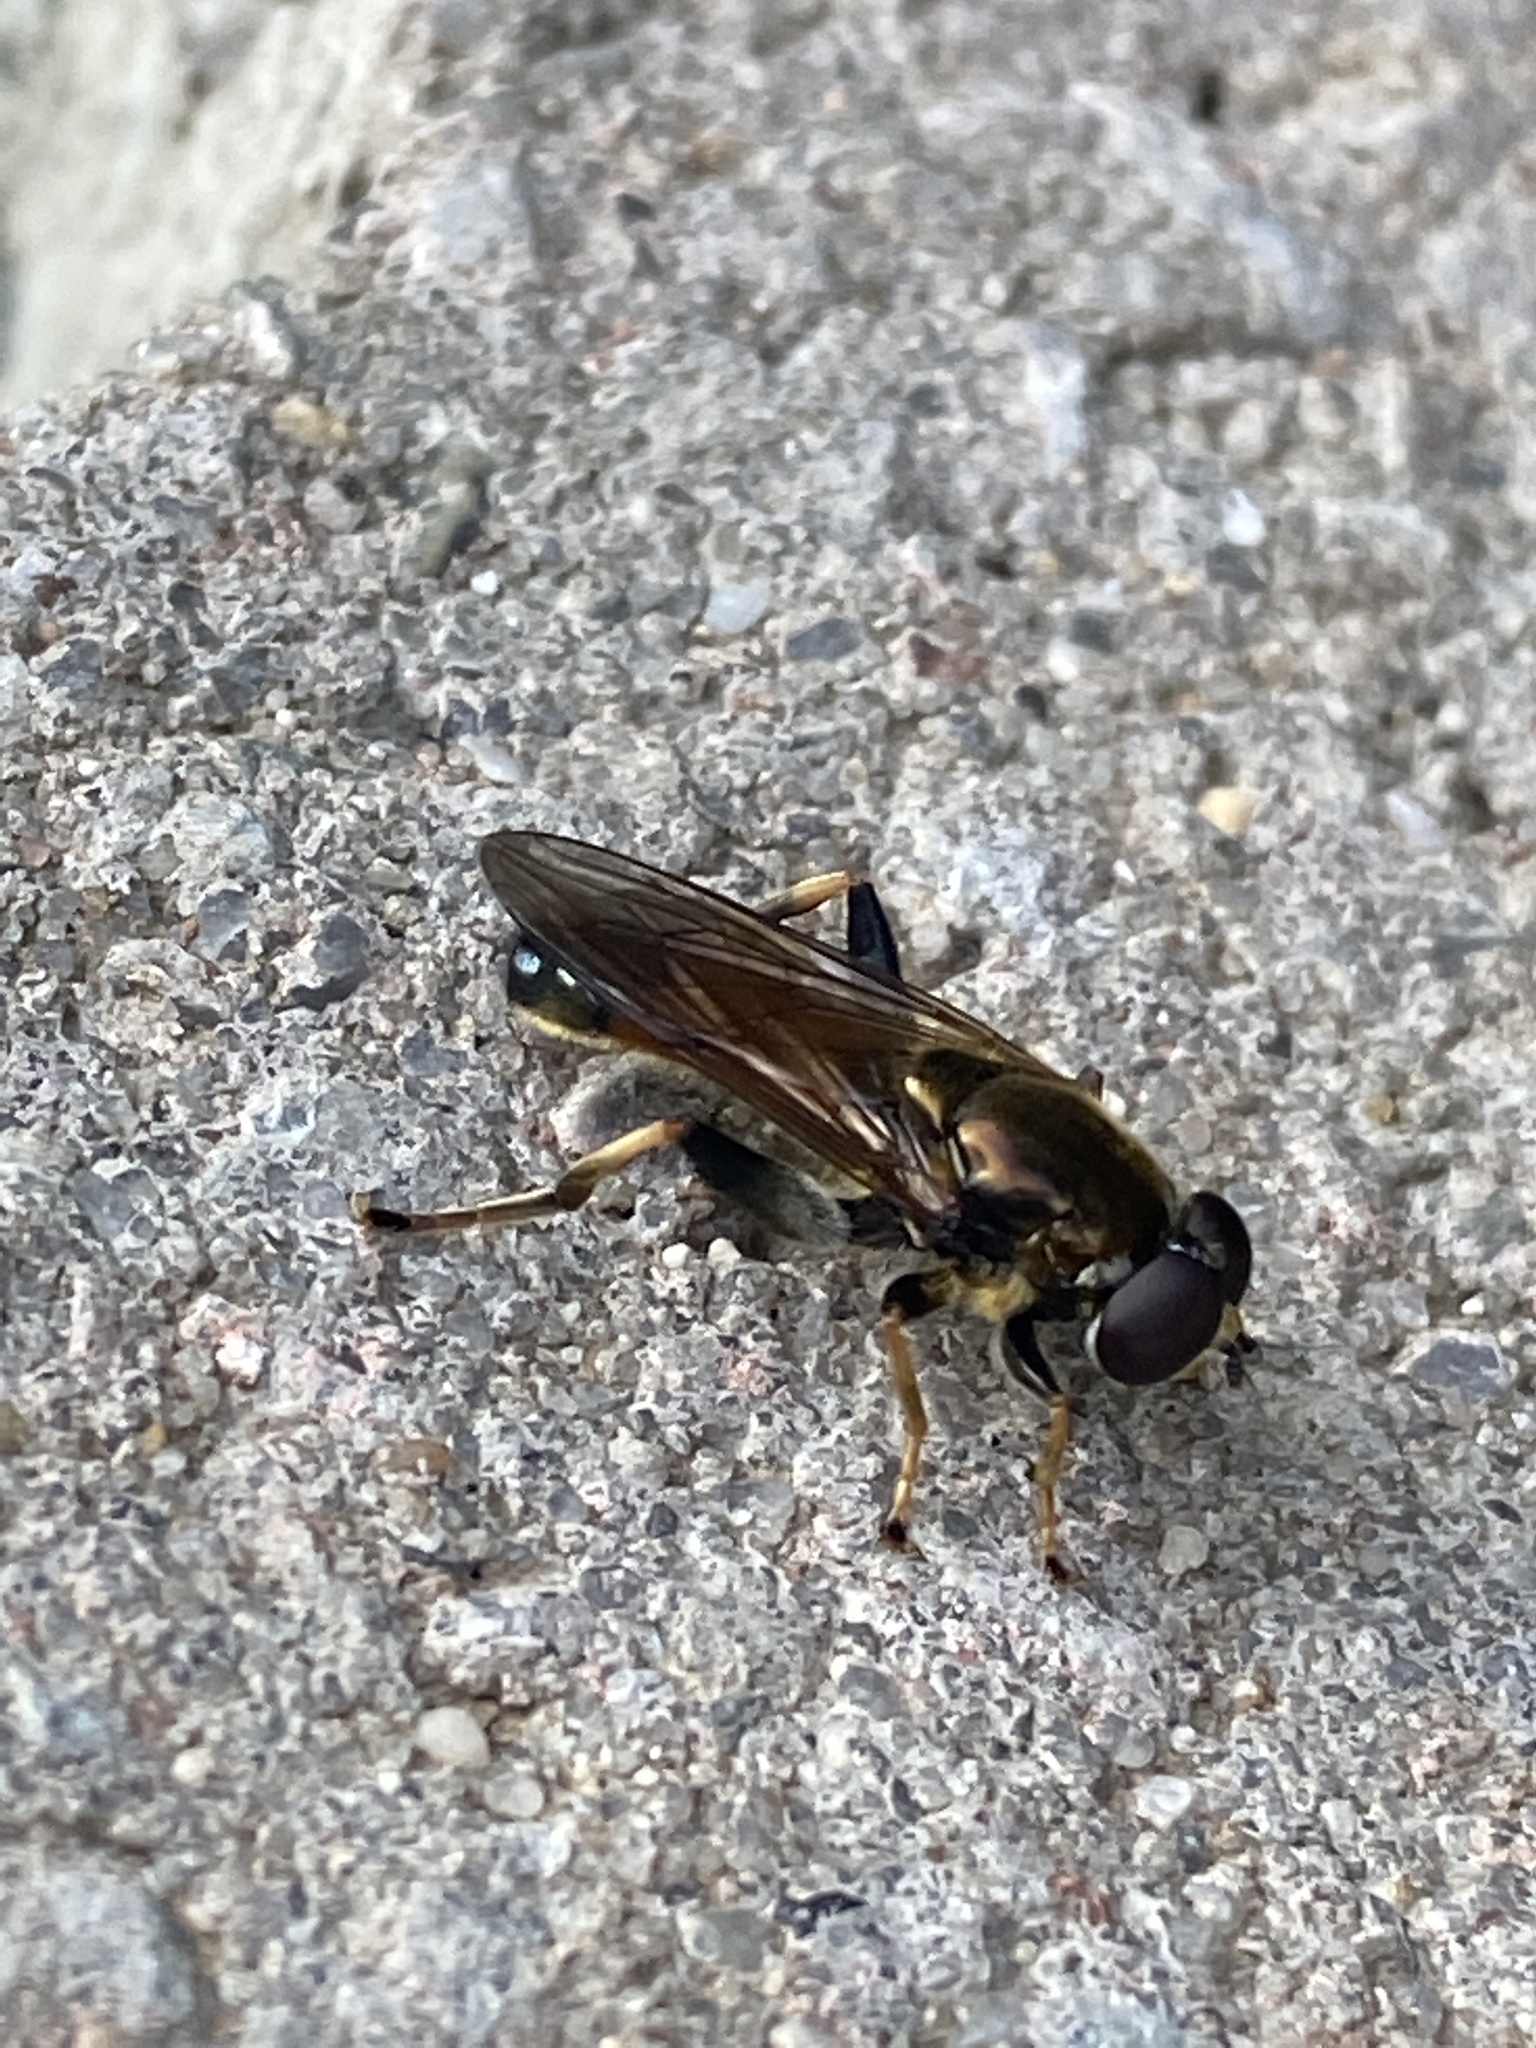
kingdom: Animalia
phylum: Arthropoda
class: Insecta
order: Diptera
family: Syrphidae
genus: Xylota
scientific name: Xylota segnis
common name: Brown-toed forest fly
